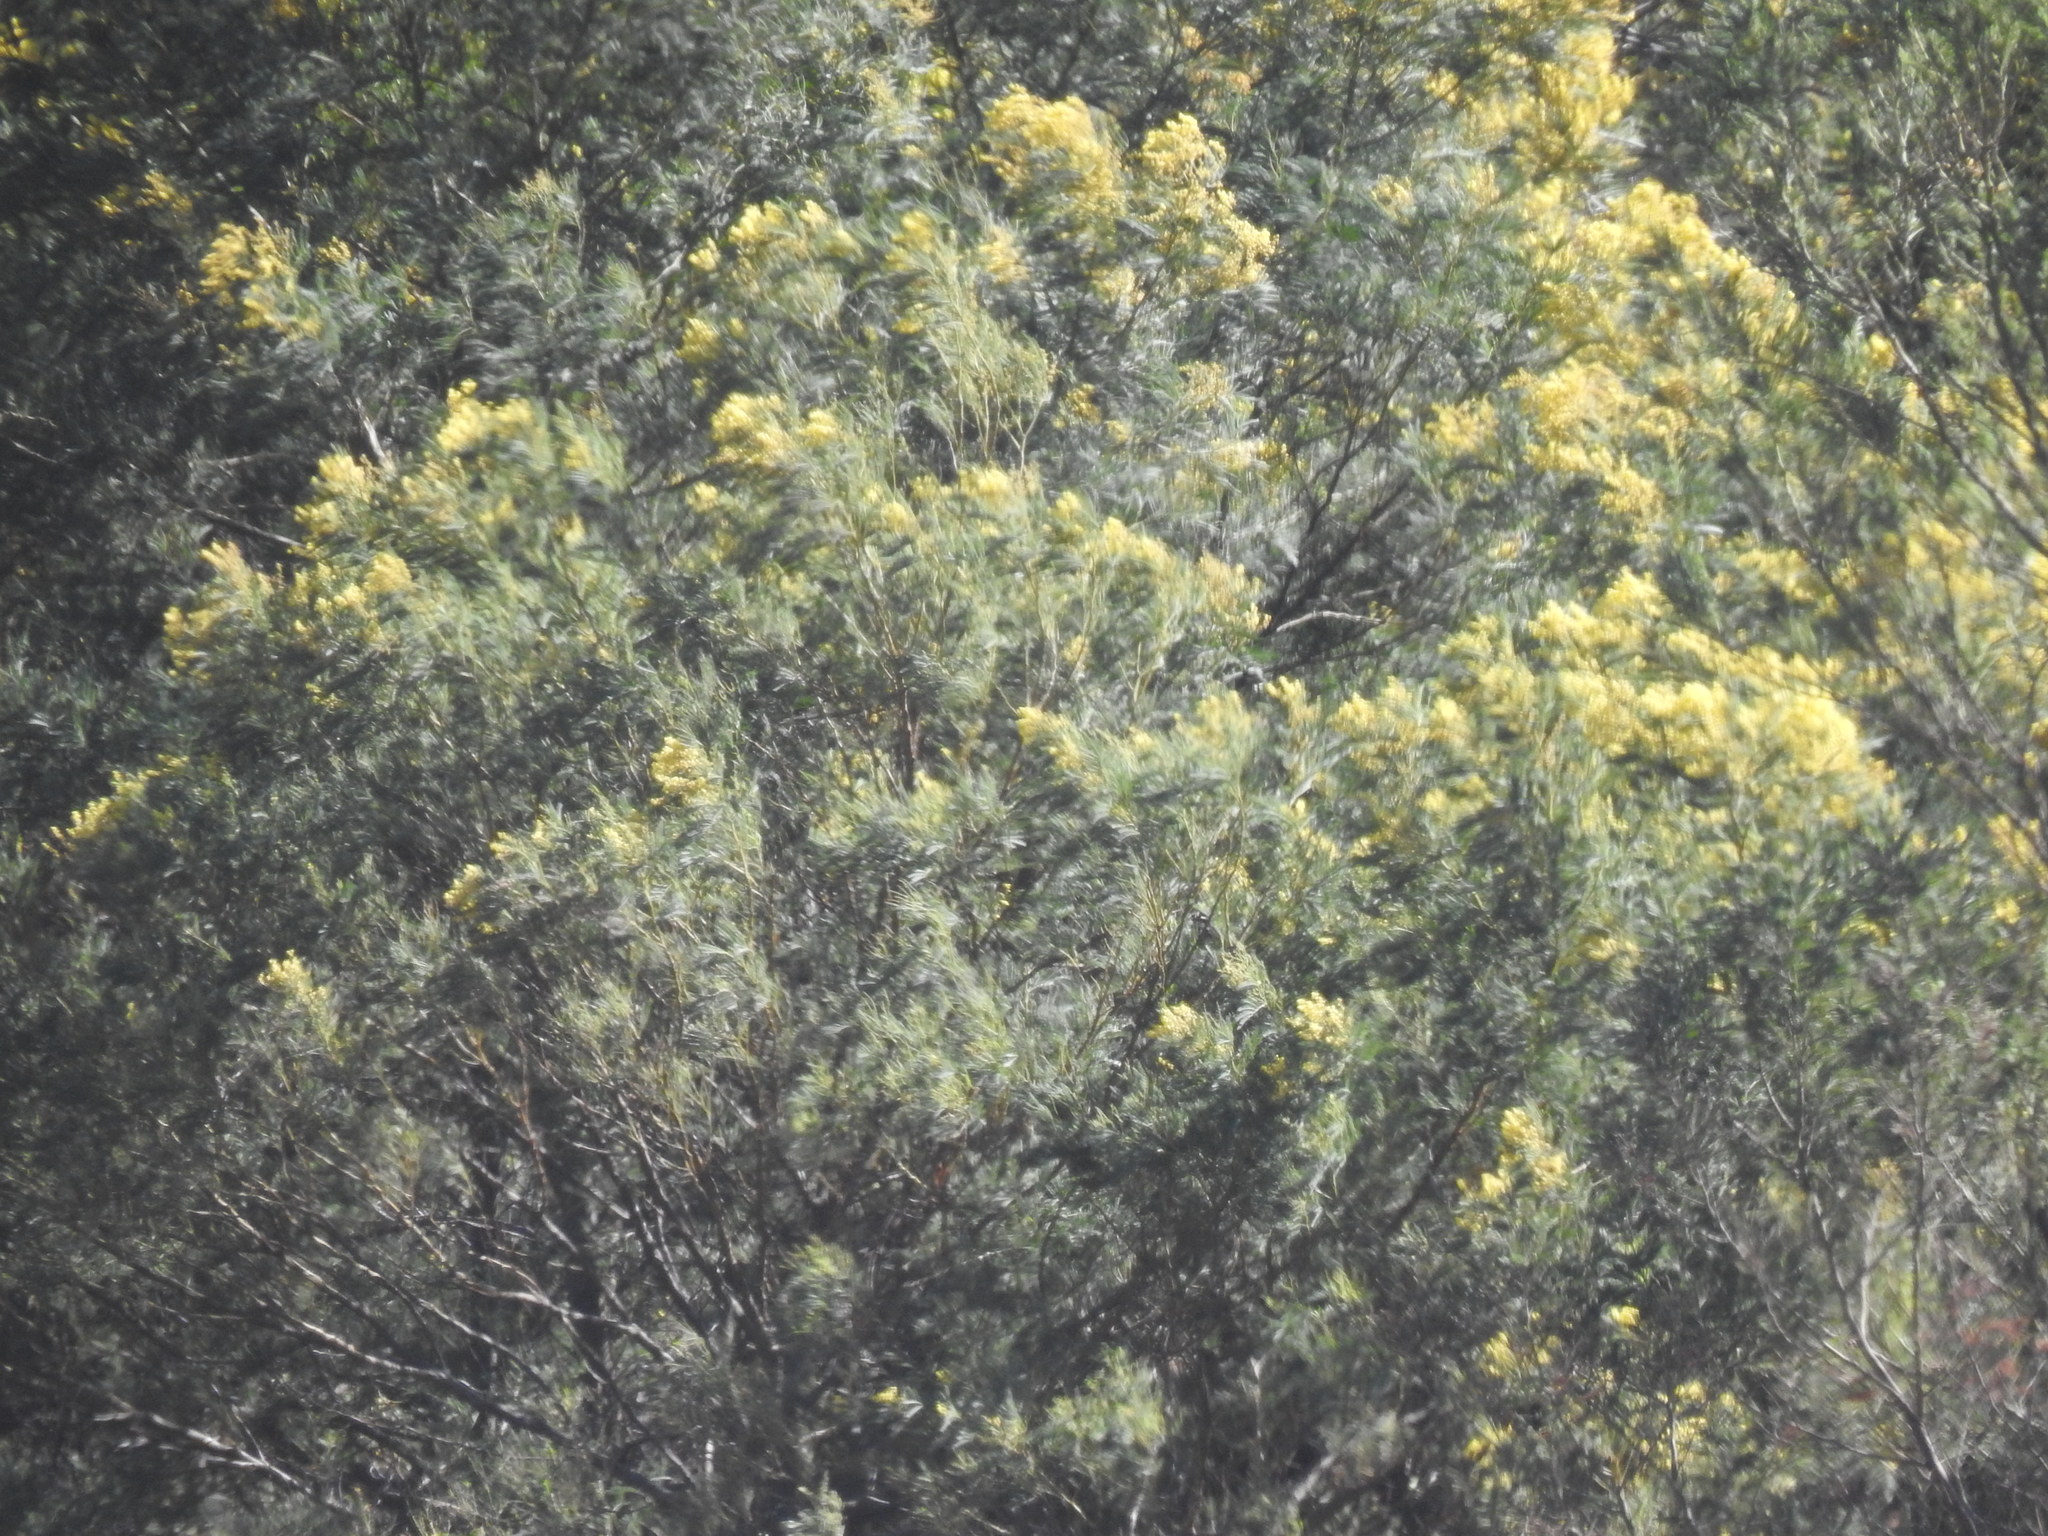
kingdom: Plantae
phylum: Tracheophyta
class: Magnoliopsida
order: Fabales
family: Fabaceae
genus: Acacia
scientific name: Acacia mearnsii
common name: Black wattle
